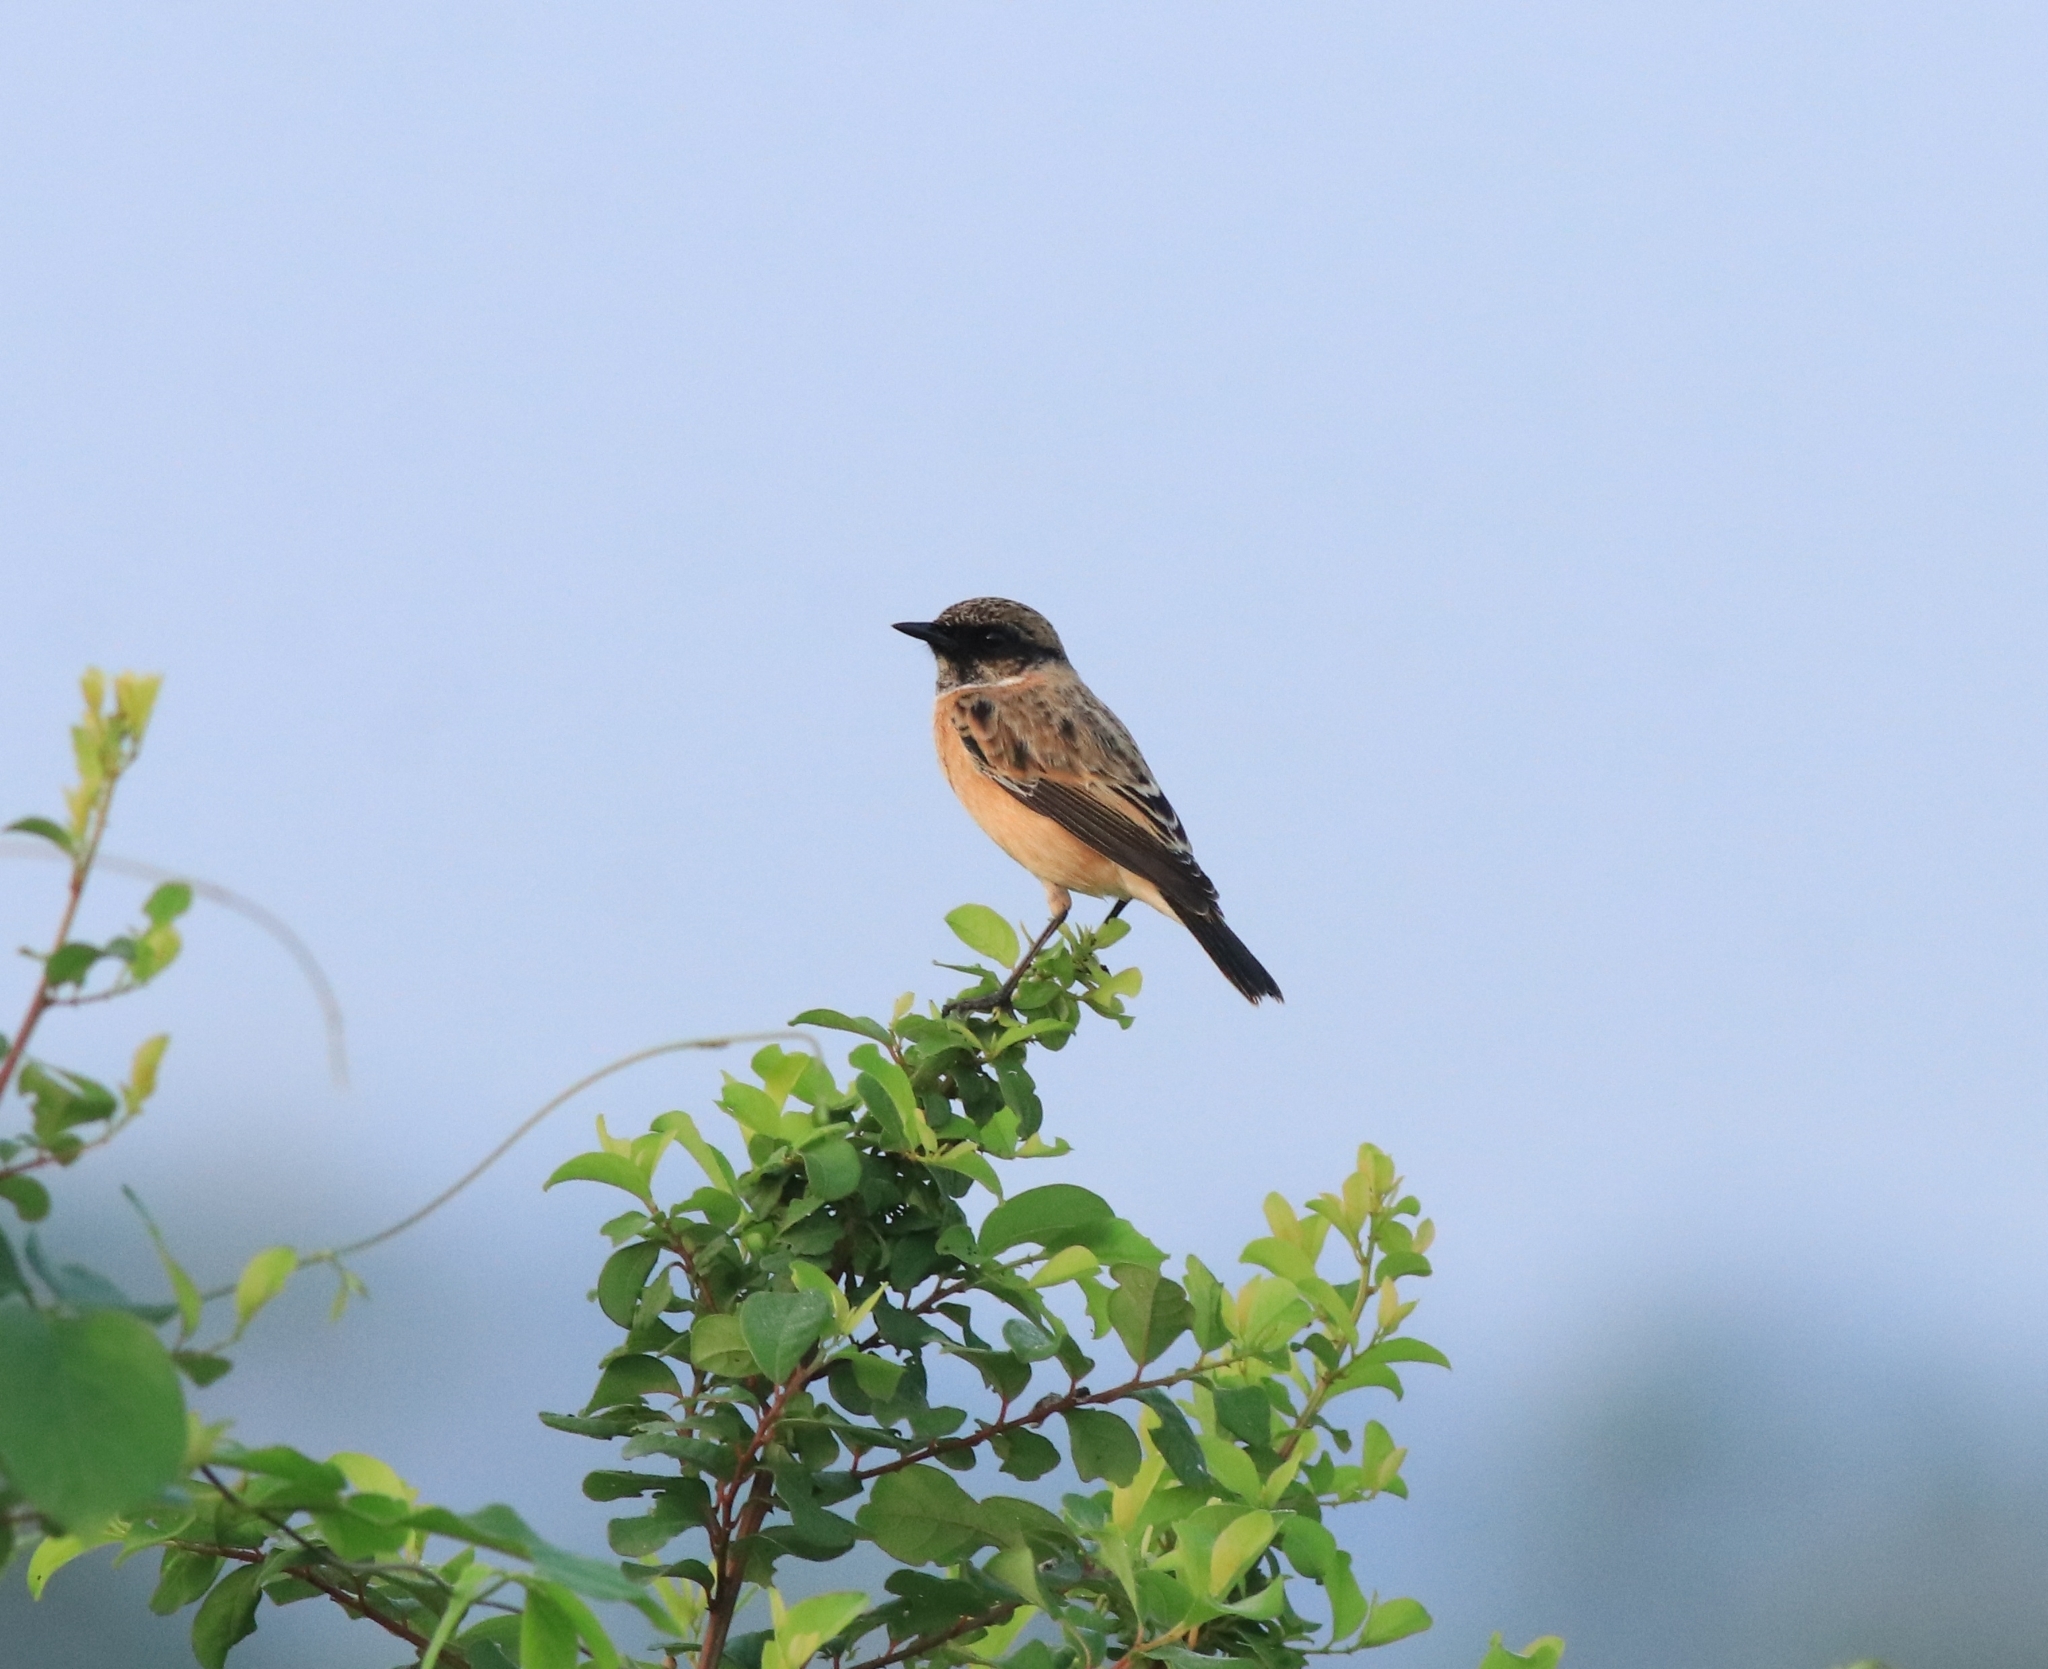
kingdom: Animalia
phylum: Chordata
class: Aves
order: Passeriformes
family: Muscicapidae
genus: Saxicola
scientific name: Saxicola maurus
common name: Siberian stonechat
